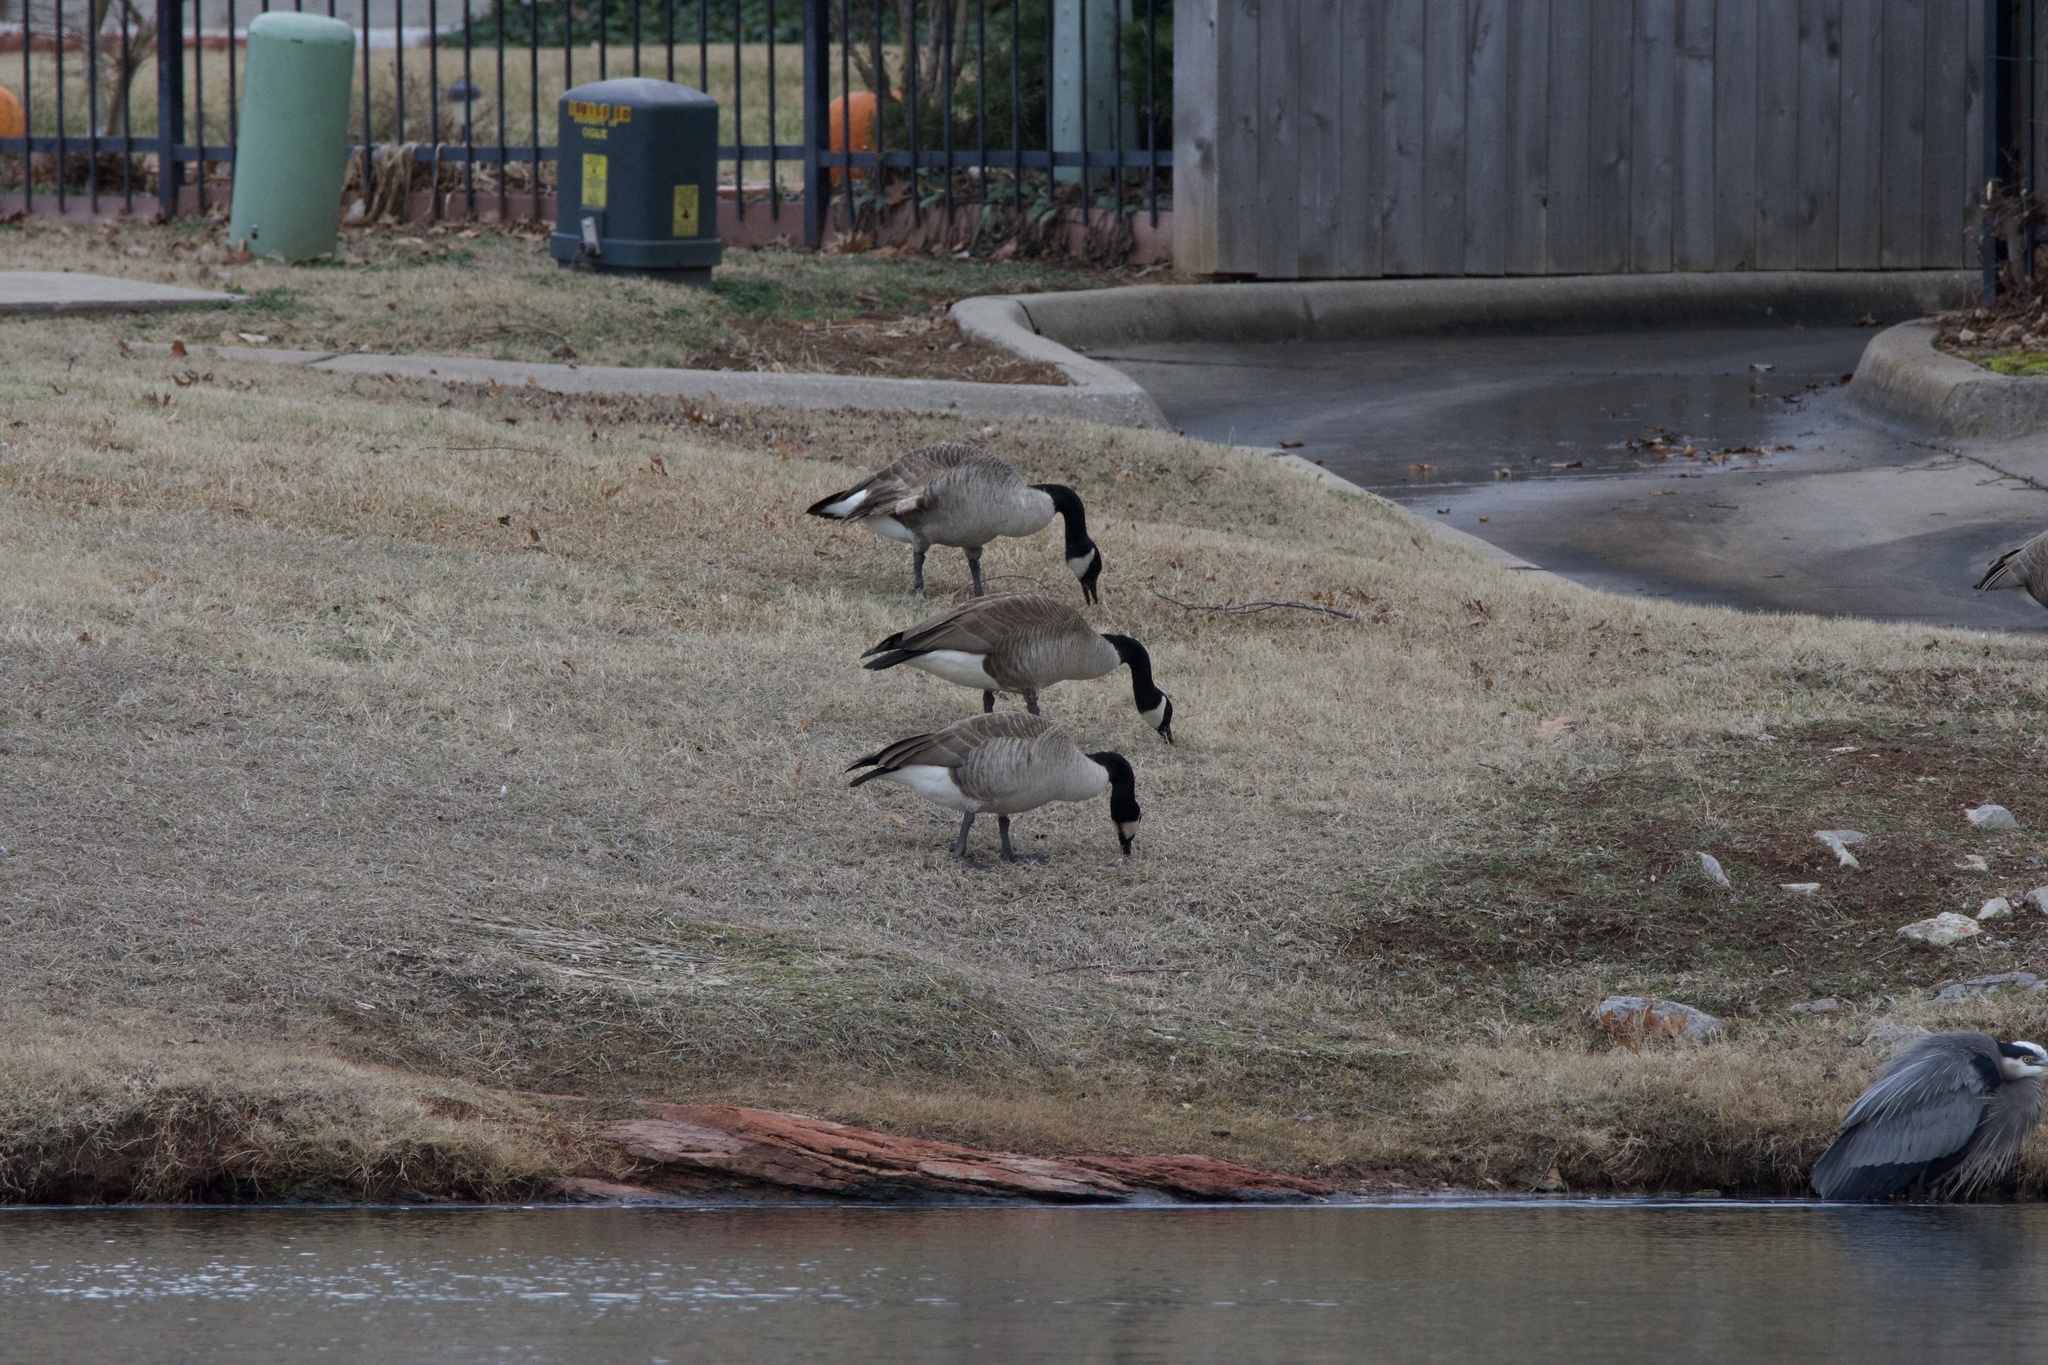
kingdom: Animalia
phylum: Chordata
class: Aves
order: Anseriformes
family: Anatidae
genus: Branta
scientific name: Branta canadensis
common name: Canada goose
